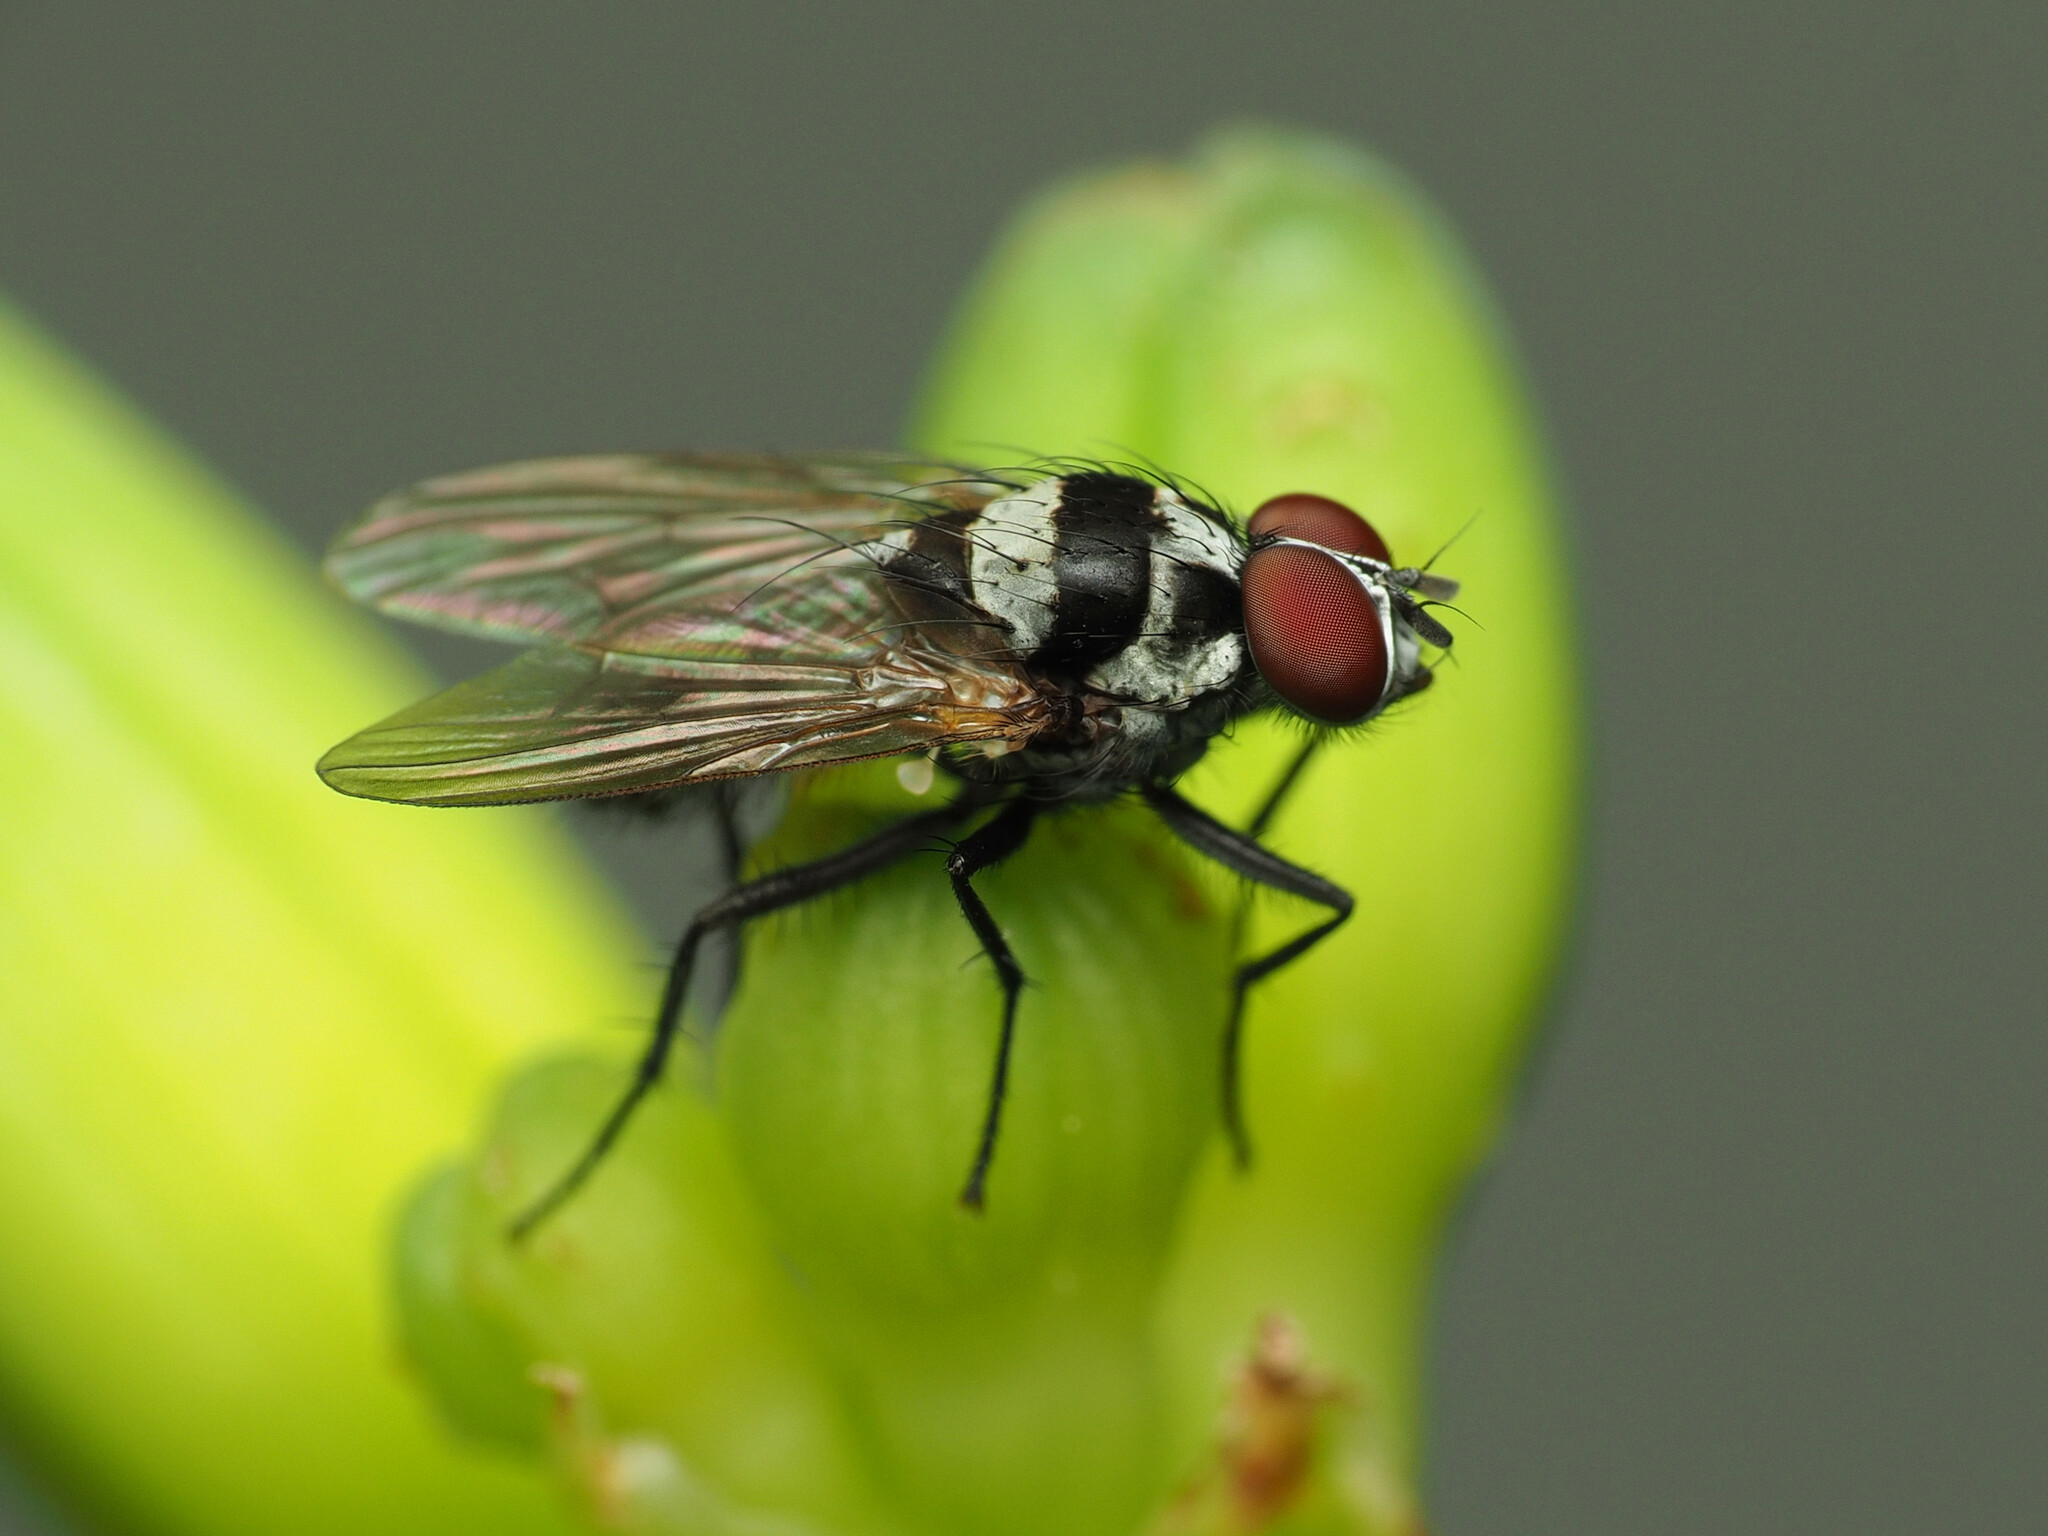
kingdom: Animalia
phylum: Arthropoda
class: Insecta
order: Diptera
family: Anthomyiidae
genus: Anthomyia
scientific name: Anthomyia oculifera
